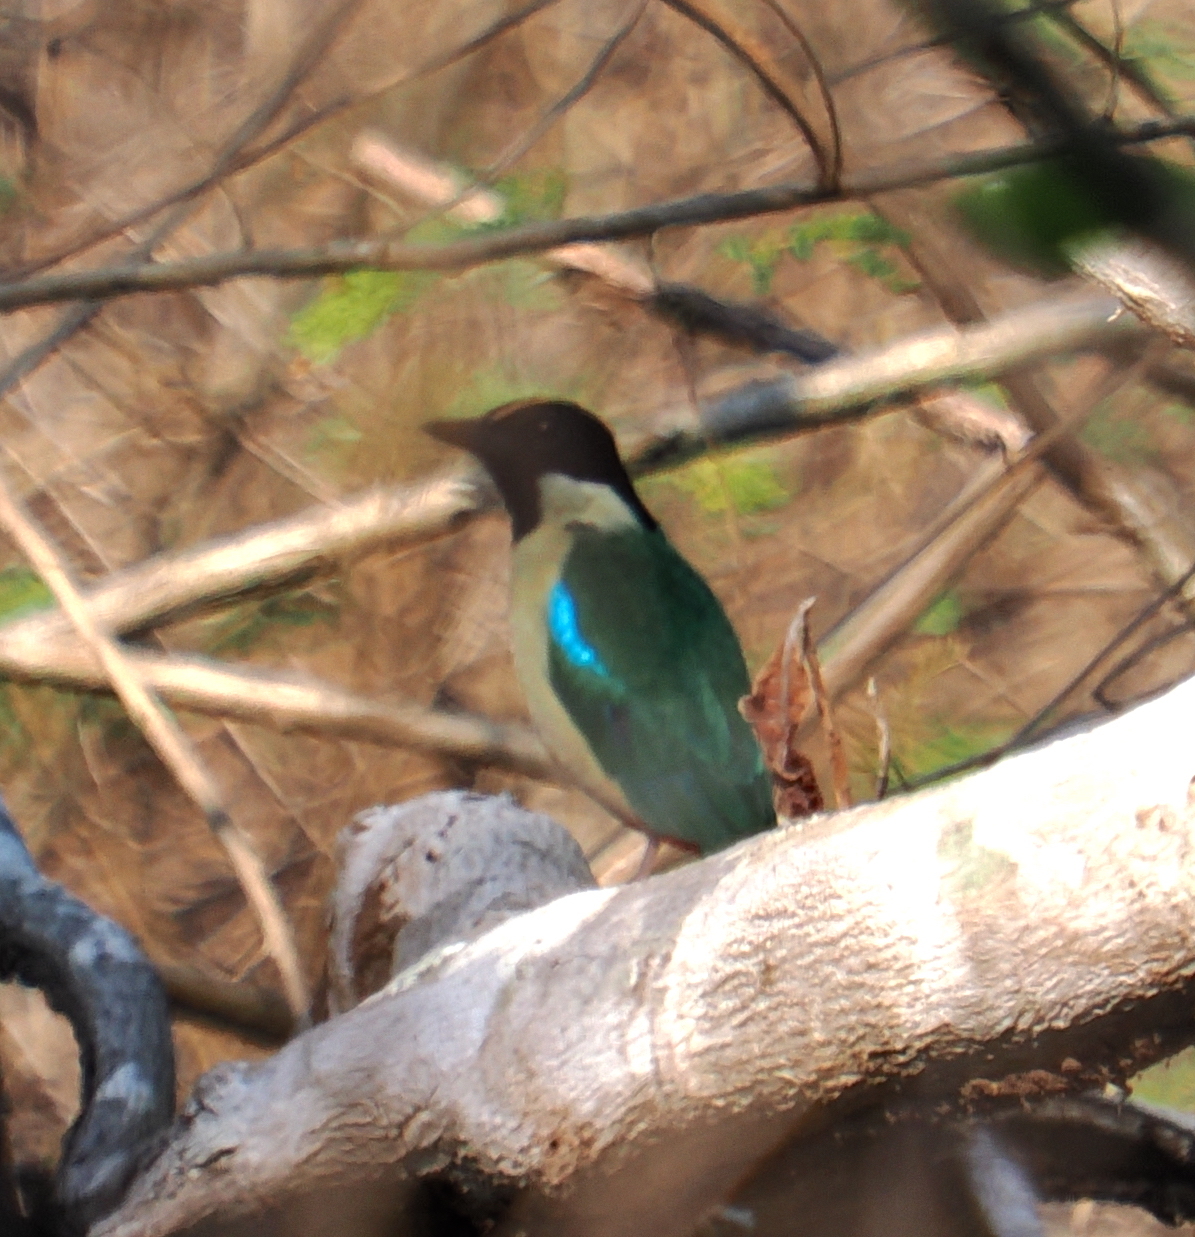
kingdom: Animalia
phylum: Chordata
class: Aves
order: Passeriformes
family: Pittidae
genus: Pitta
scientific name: Pitta concinna
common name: Ornate pitta
